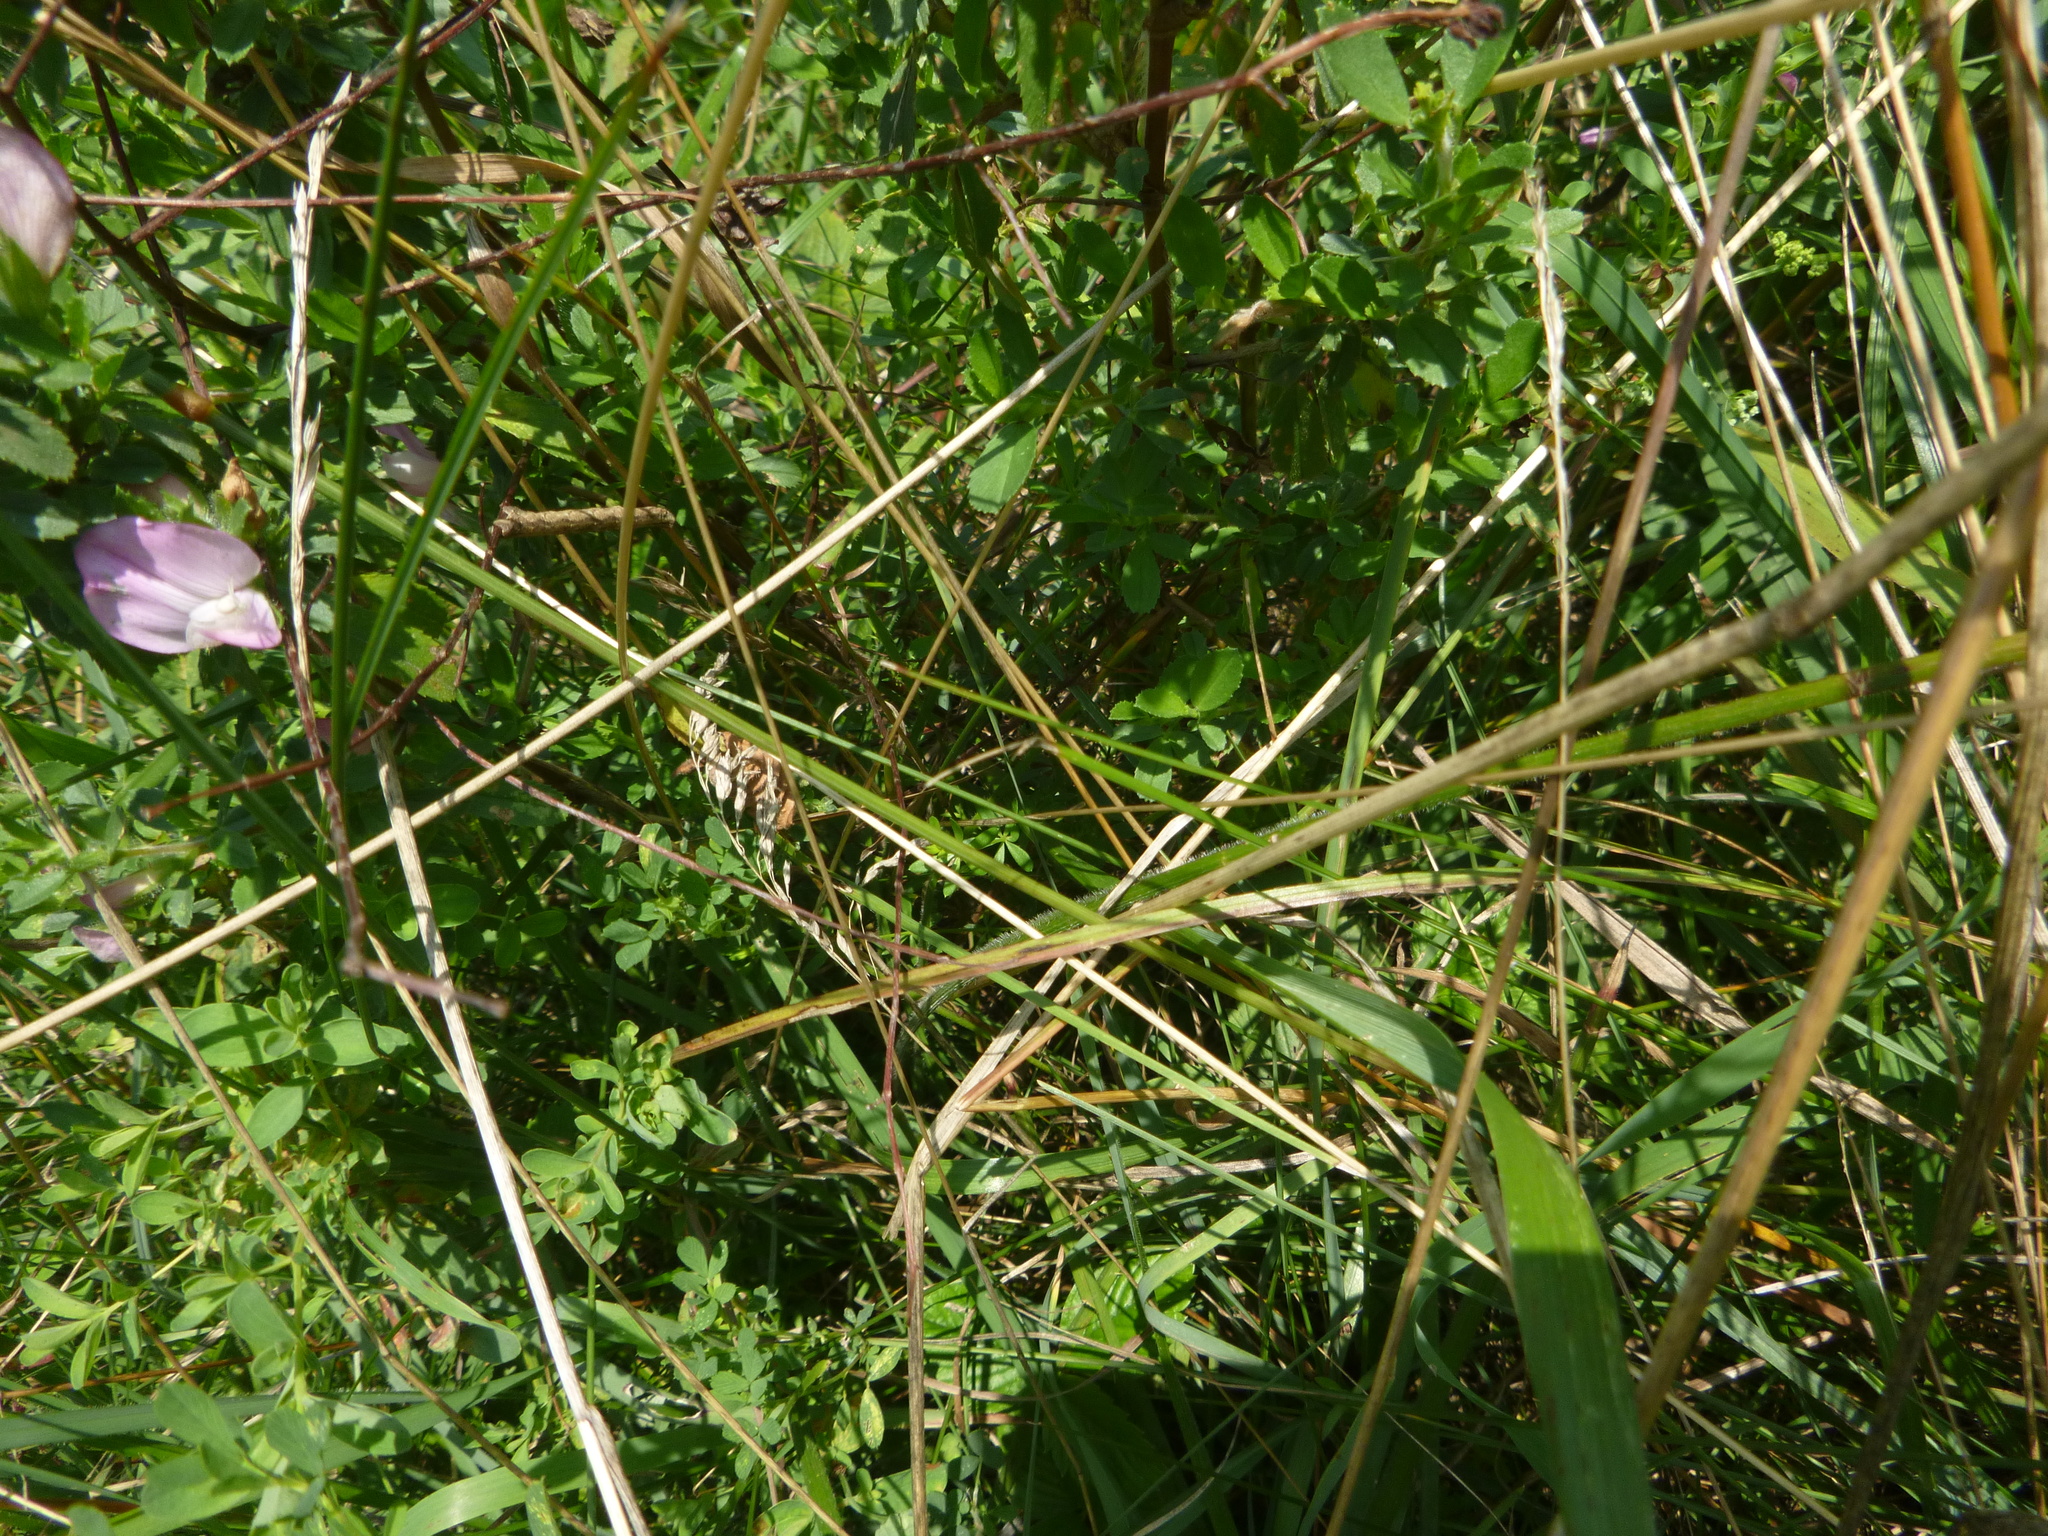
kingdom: Plantae
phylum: Tracheophyta
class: Magnoliopsida
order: Fabales
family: Fabaceae
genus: Ononis
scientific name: Ononis spinosa
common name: Spiny restharrow
